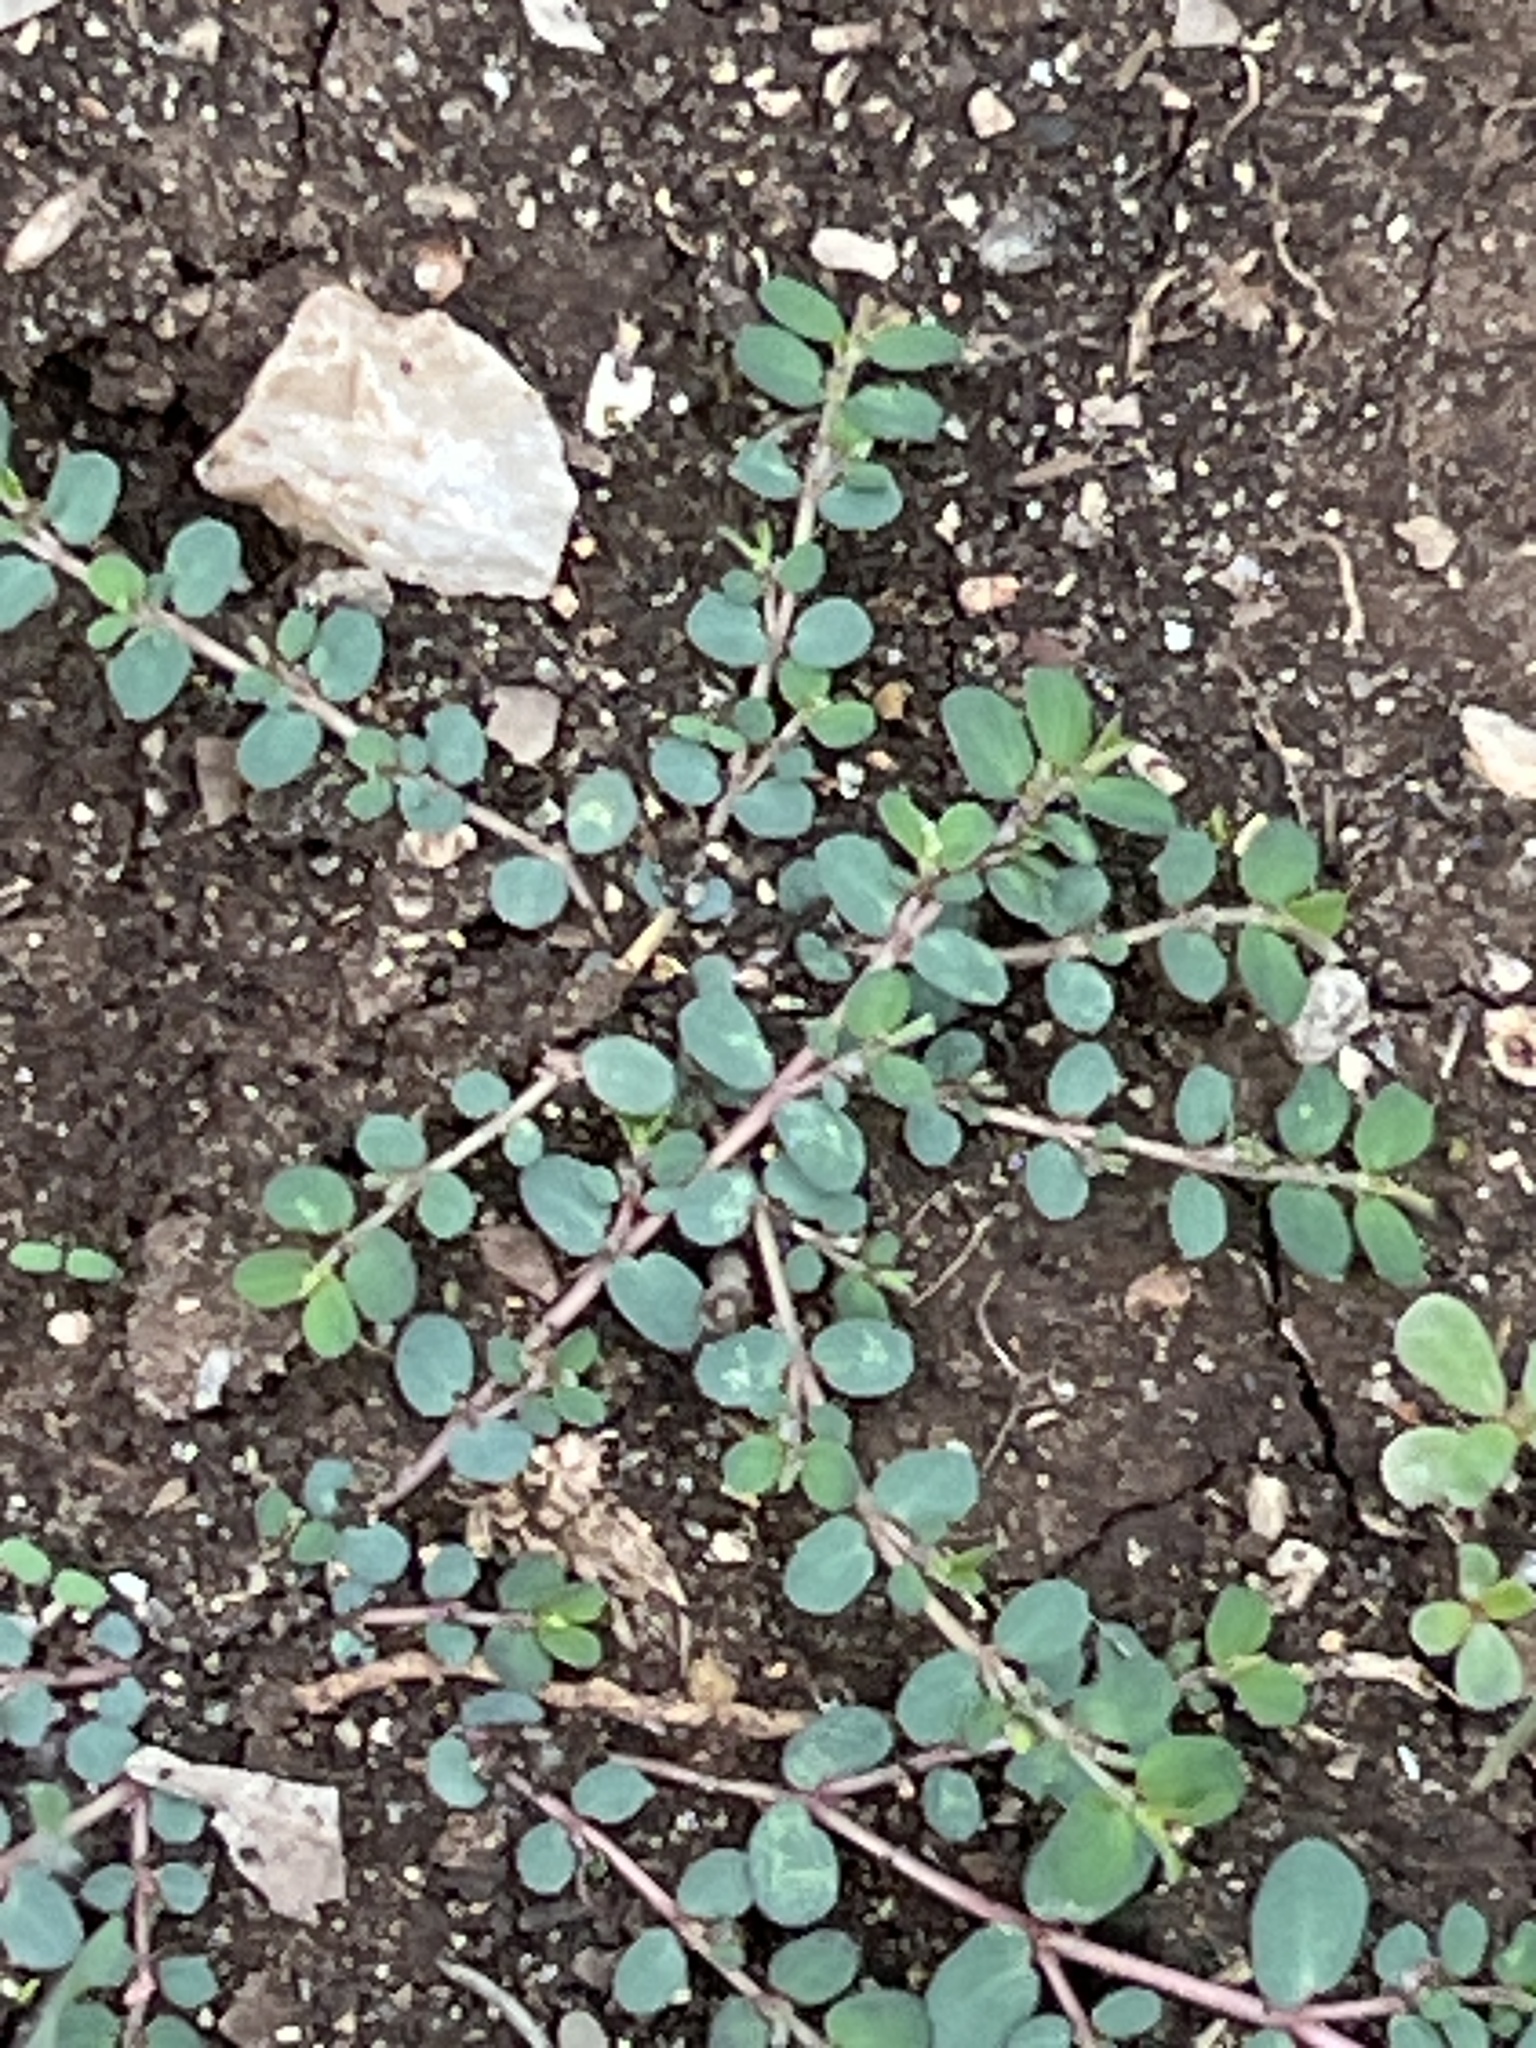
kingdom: Plantae
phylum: Tracheophyta
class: Magnoliopsida
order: Malpighiales
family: Euphorbiaceae
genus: Euphorbia
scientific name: Euphorbia prostrata
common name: Prostrate sandmat
